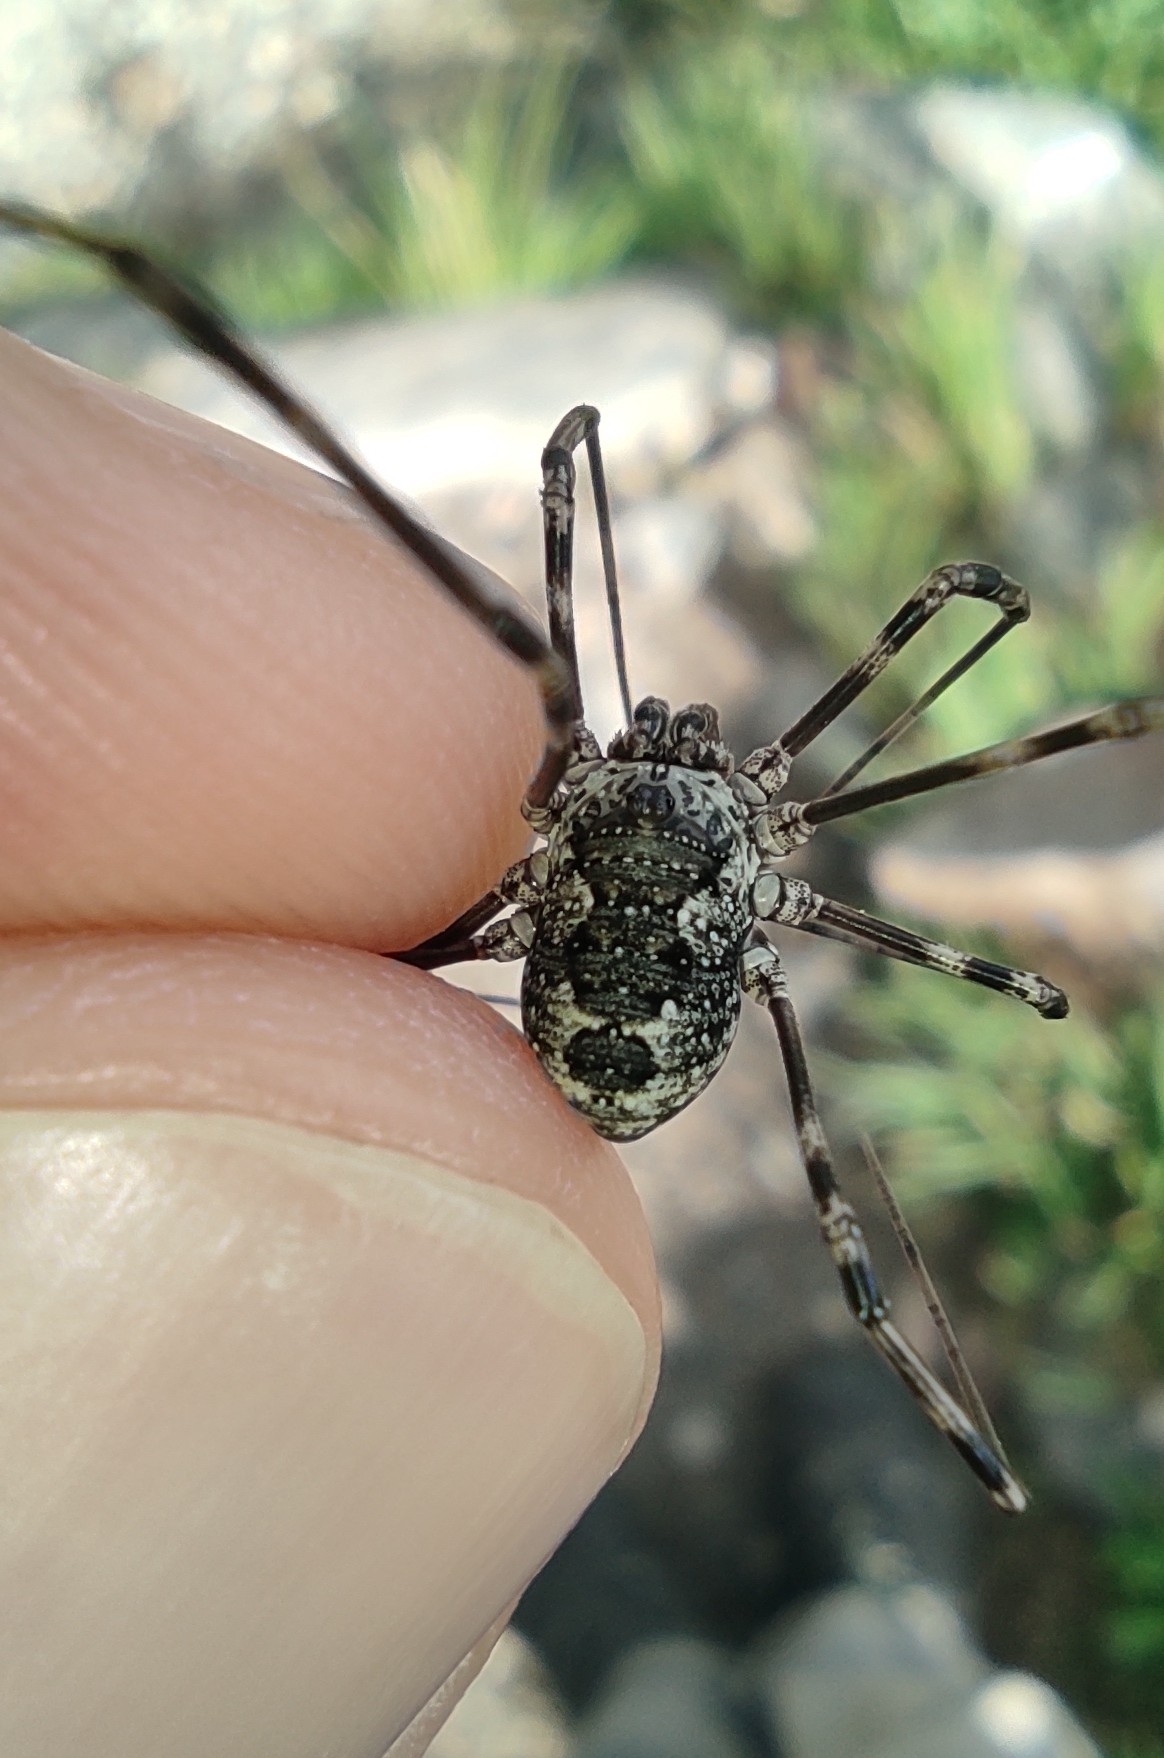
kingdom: Animalia
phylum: Arthropoda
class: Arachnida
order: Opiliones
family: Phalangiidae
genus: Mitopus
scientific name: Mitopus glacialis
